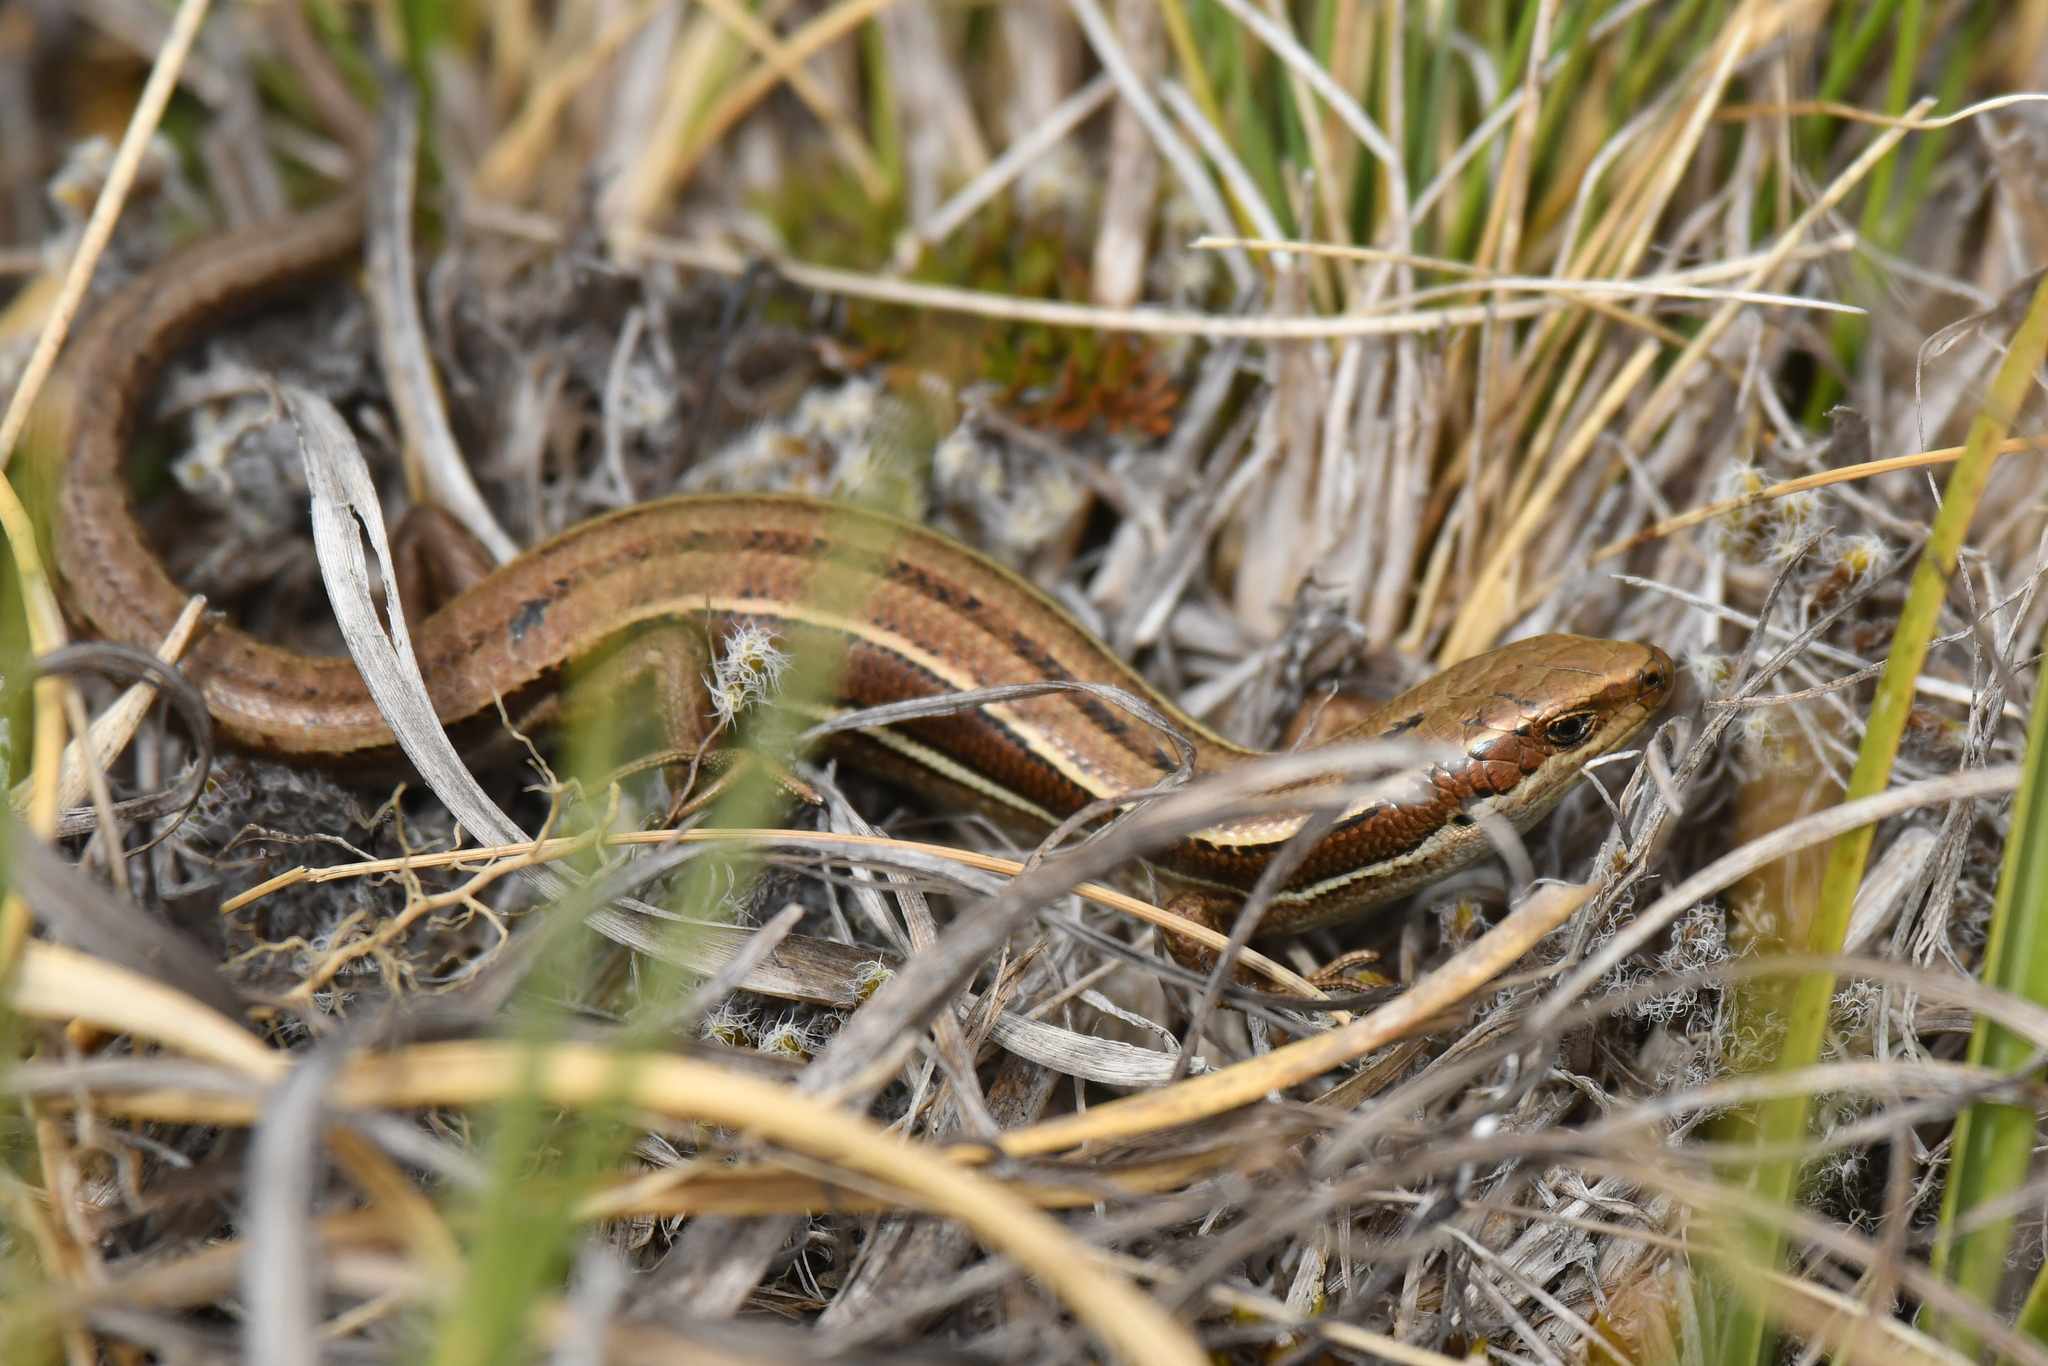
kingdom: Animalia
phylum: Chordata
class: Squamata
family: Scincidae
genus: Oligosoma
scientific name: Oligosoma repens
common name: Eyres skink
